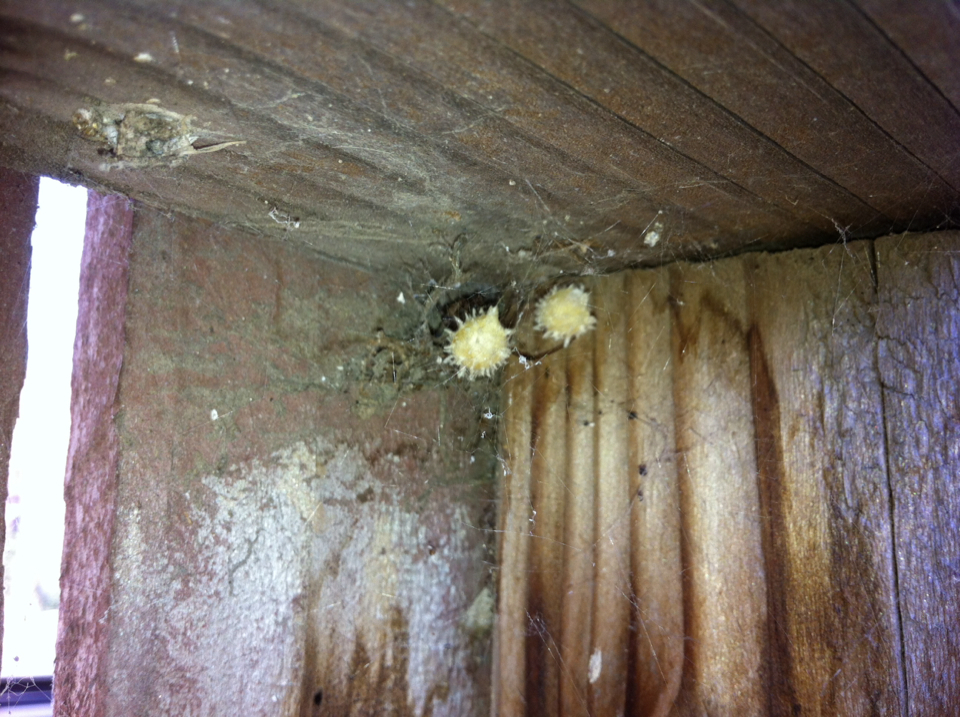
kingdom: Animalia
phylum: Arthropoda
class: Arachnida
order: Araneae
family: Theridiidae
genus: Latrodectus
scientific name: Latrodectus geometricus
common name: Brown widow spider
